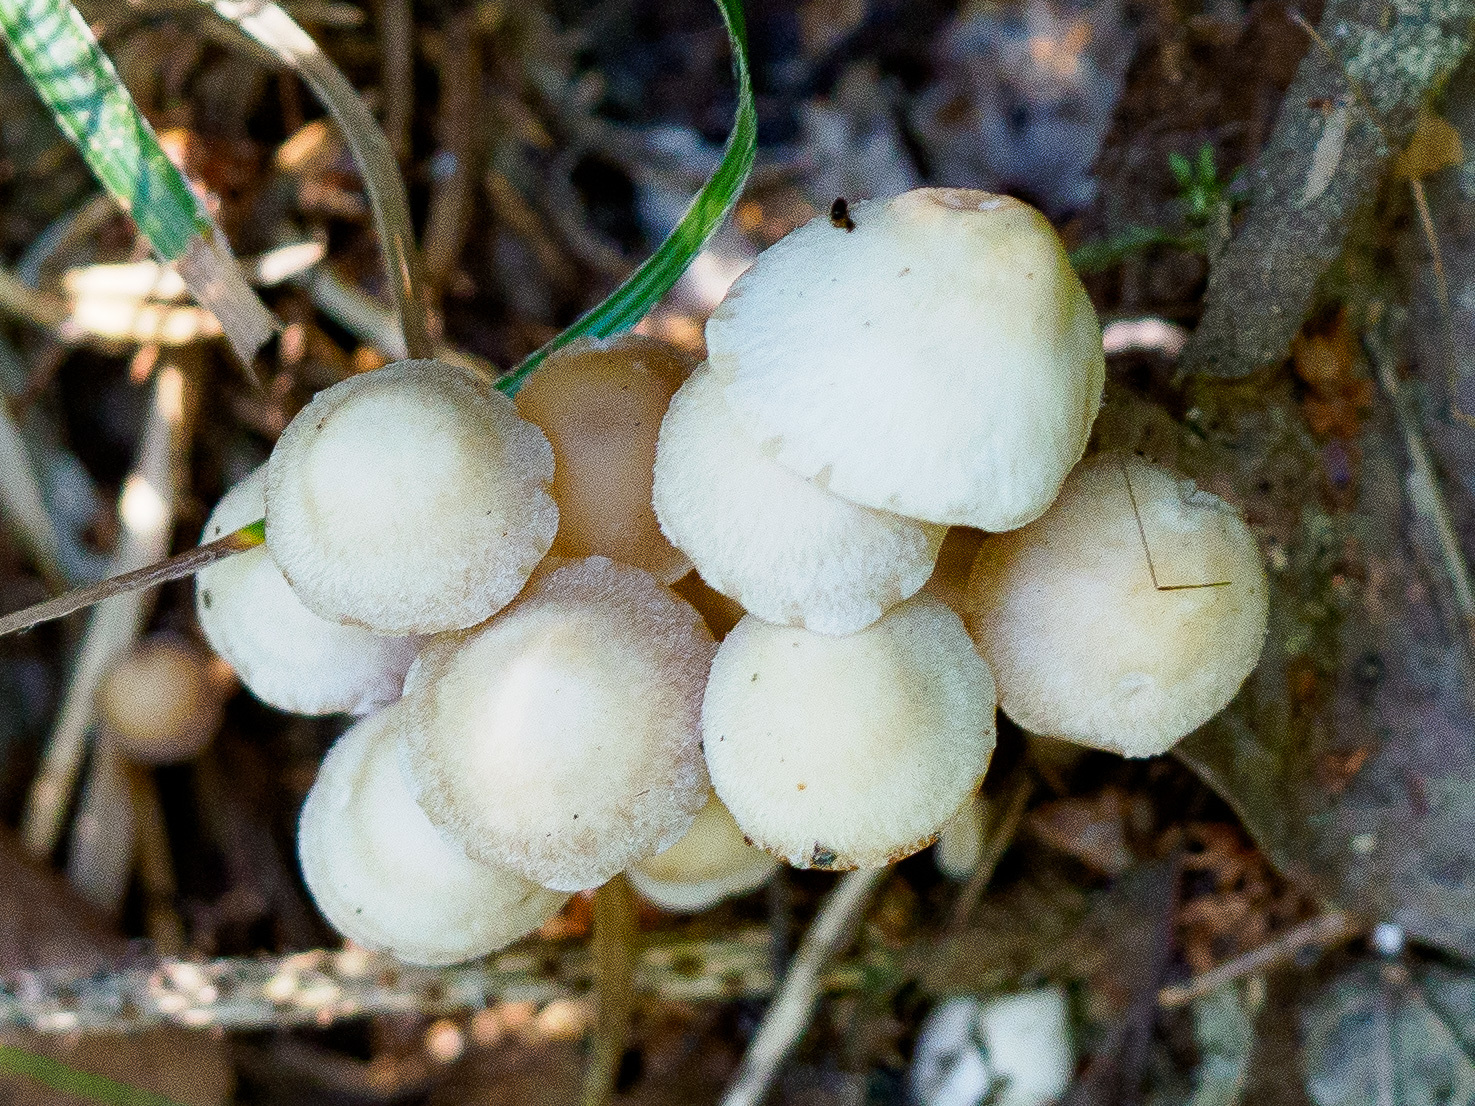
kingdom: Fungi
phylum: Basidiomycota
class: Agaricomycetes
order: Agaricales
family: Omphalotaceae
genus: Collybiopsis
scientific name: Collybiopsis confluens
